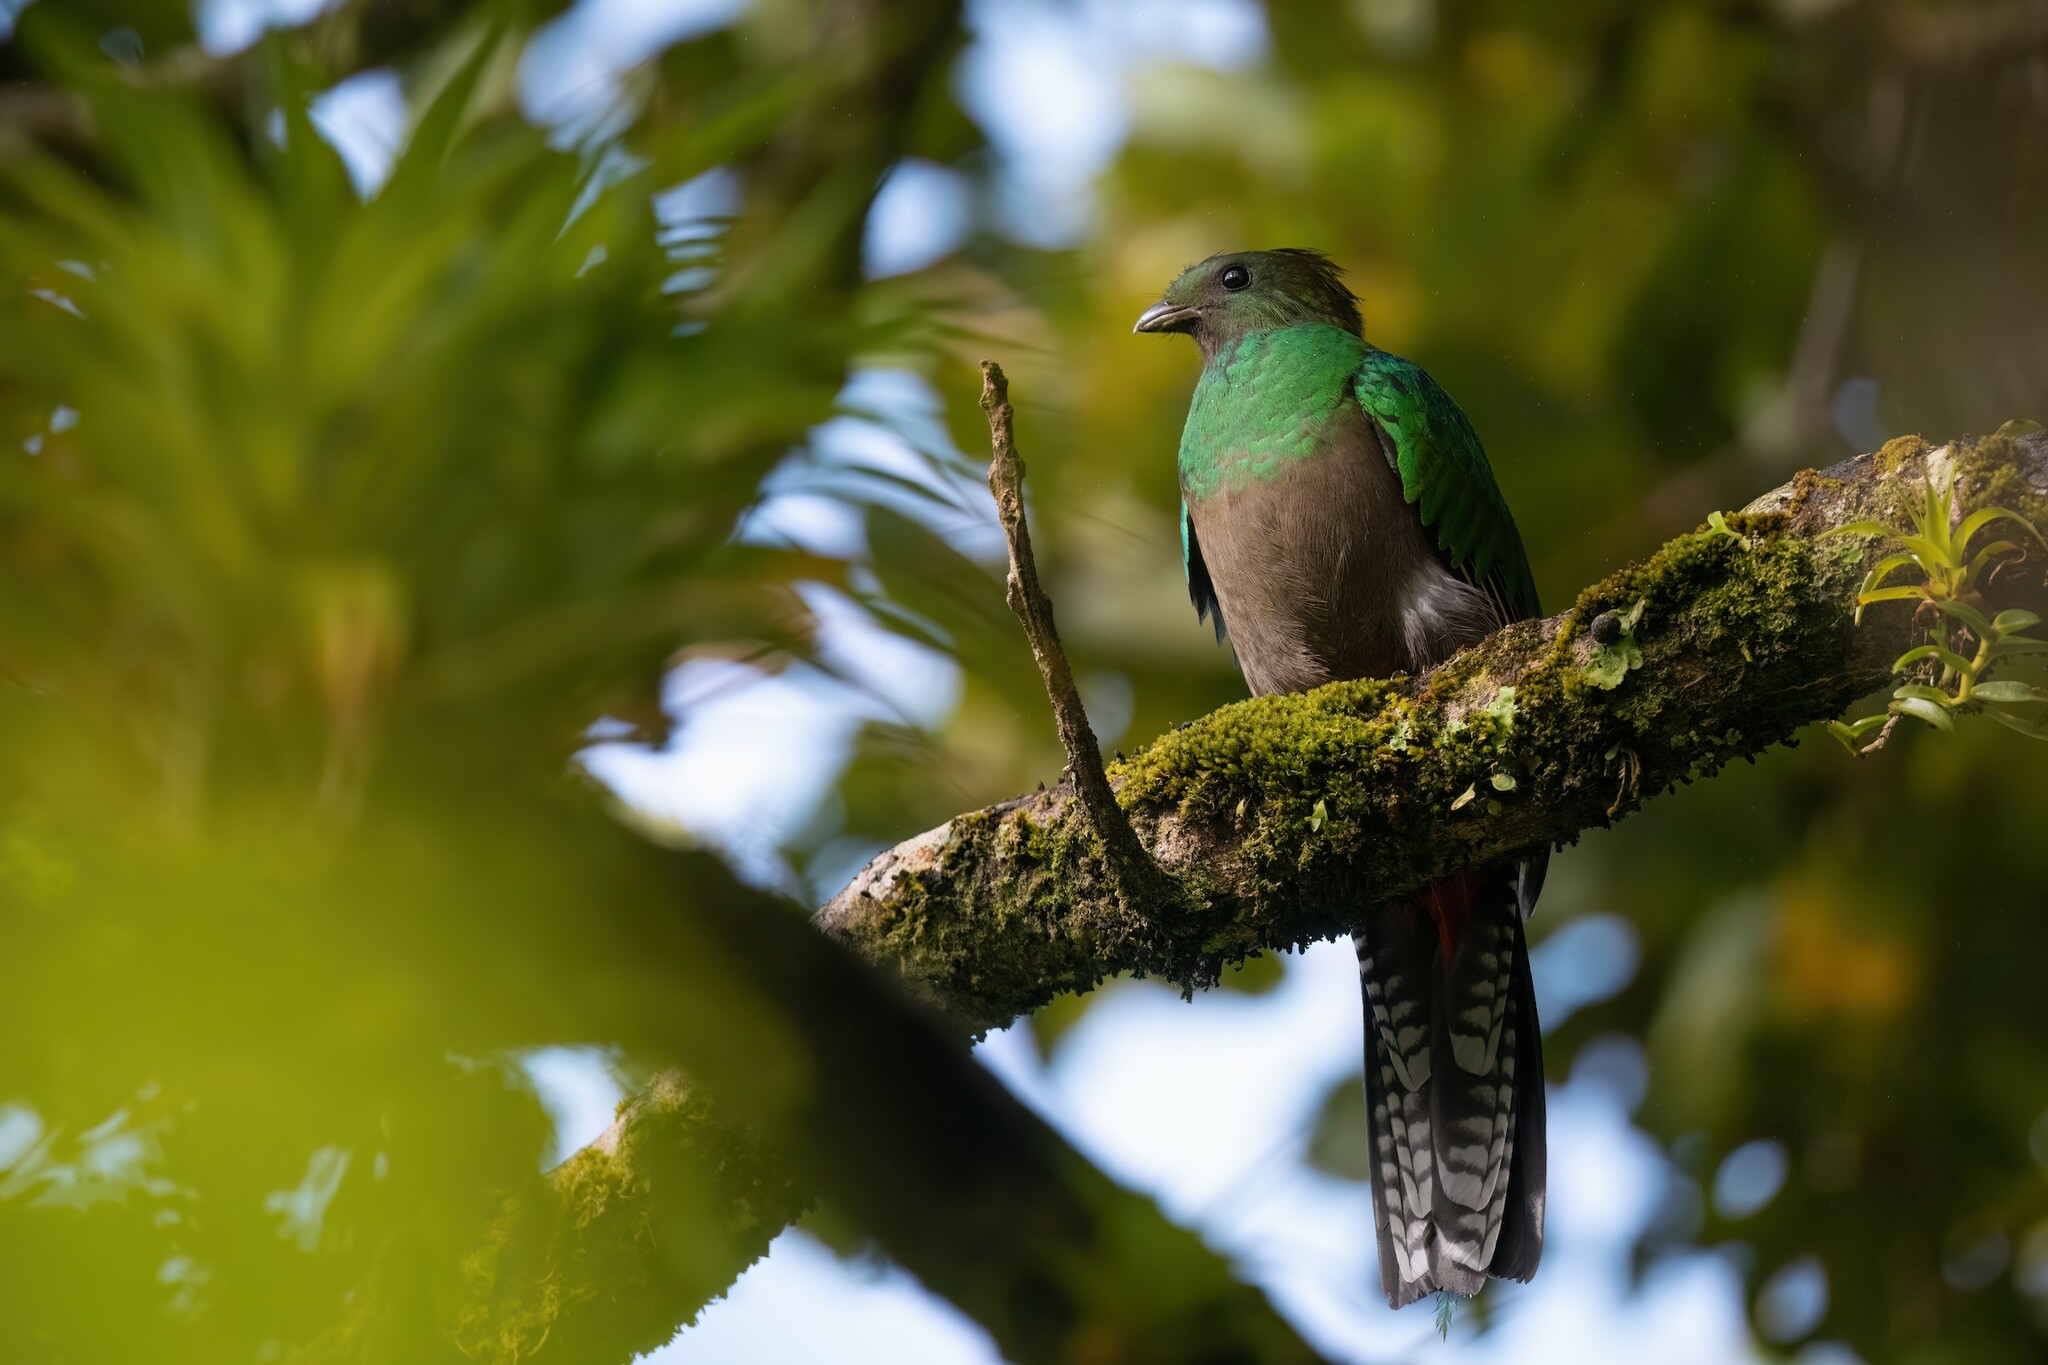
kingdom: Animalia
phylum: Chordata
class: Aves
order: Trogoniformes
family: Trogonidae
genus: Pharomachrus
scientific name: Pharomachrus mocinno
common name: Resplendent quetzal
